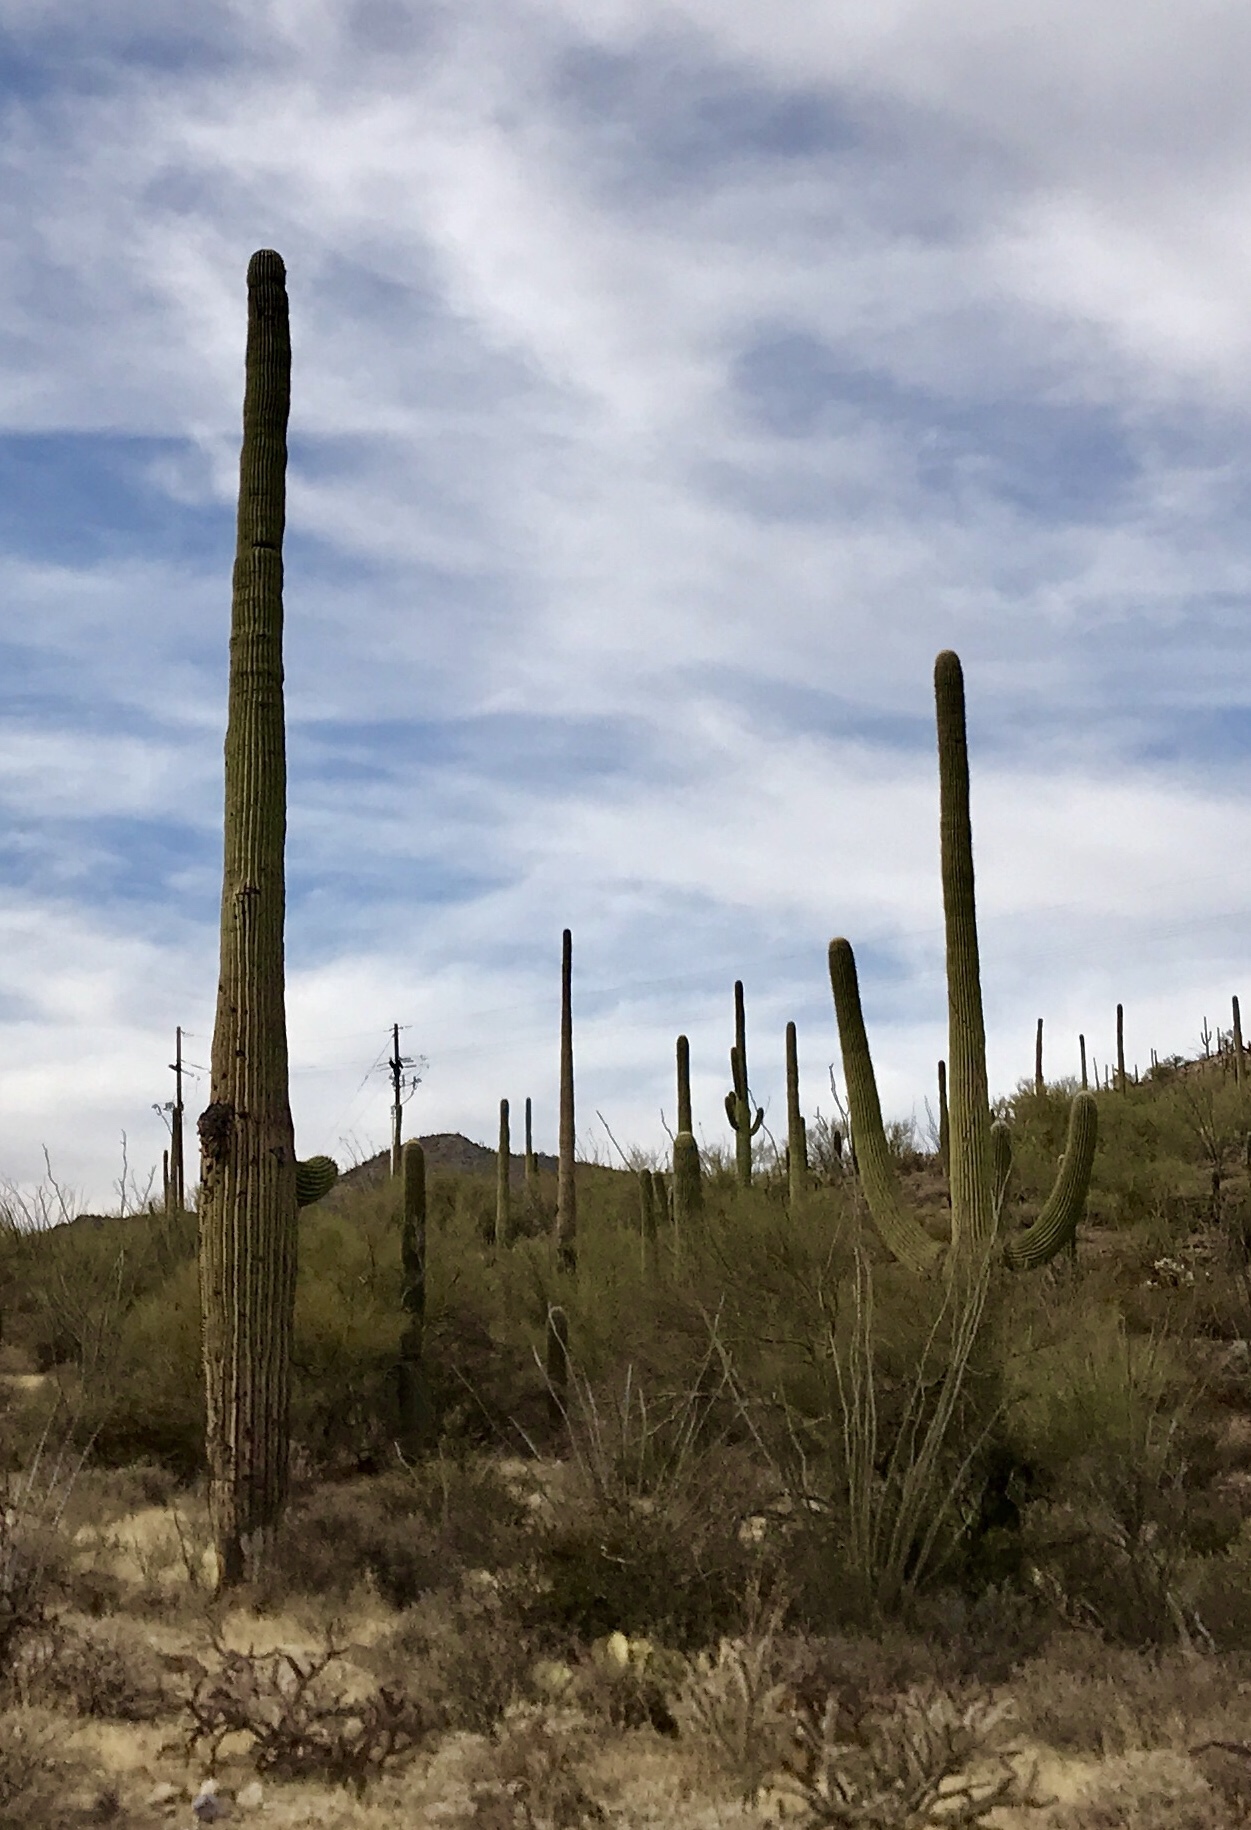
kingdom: Plantae
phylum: Tracheophyta
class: Magnoliopsida
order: Caryophyllales
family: Cactaceae
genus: Carnegiea
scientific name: Carnegiea gigantea
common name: Saguaro
